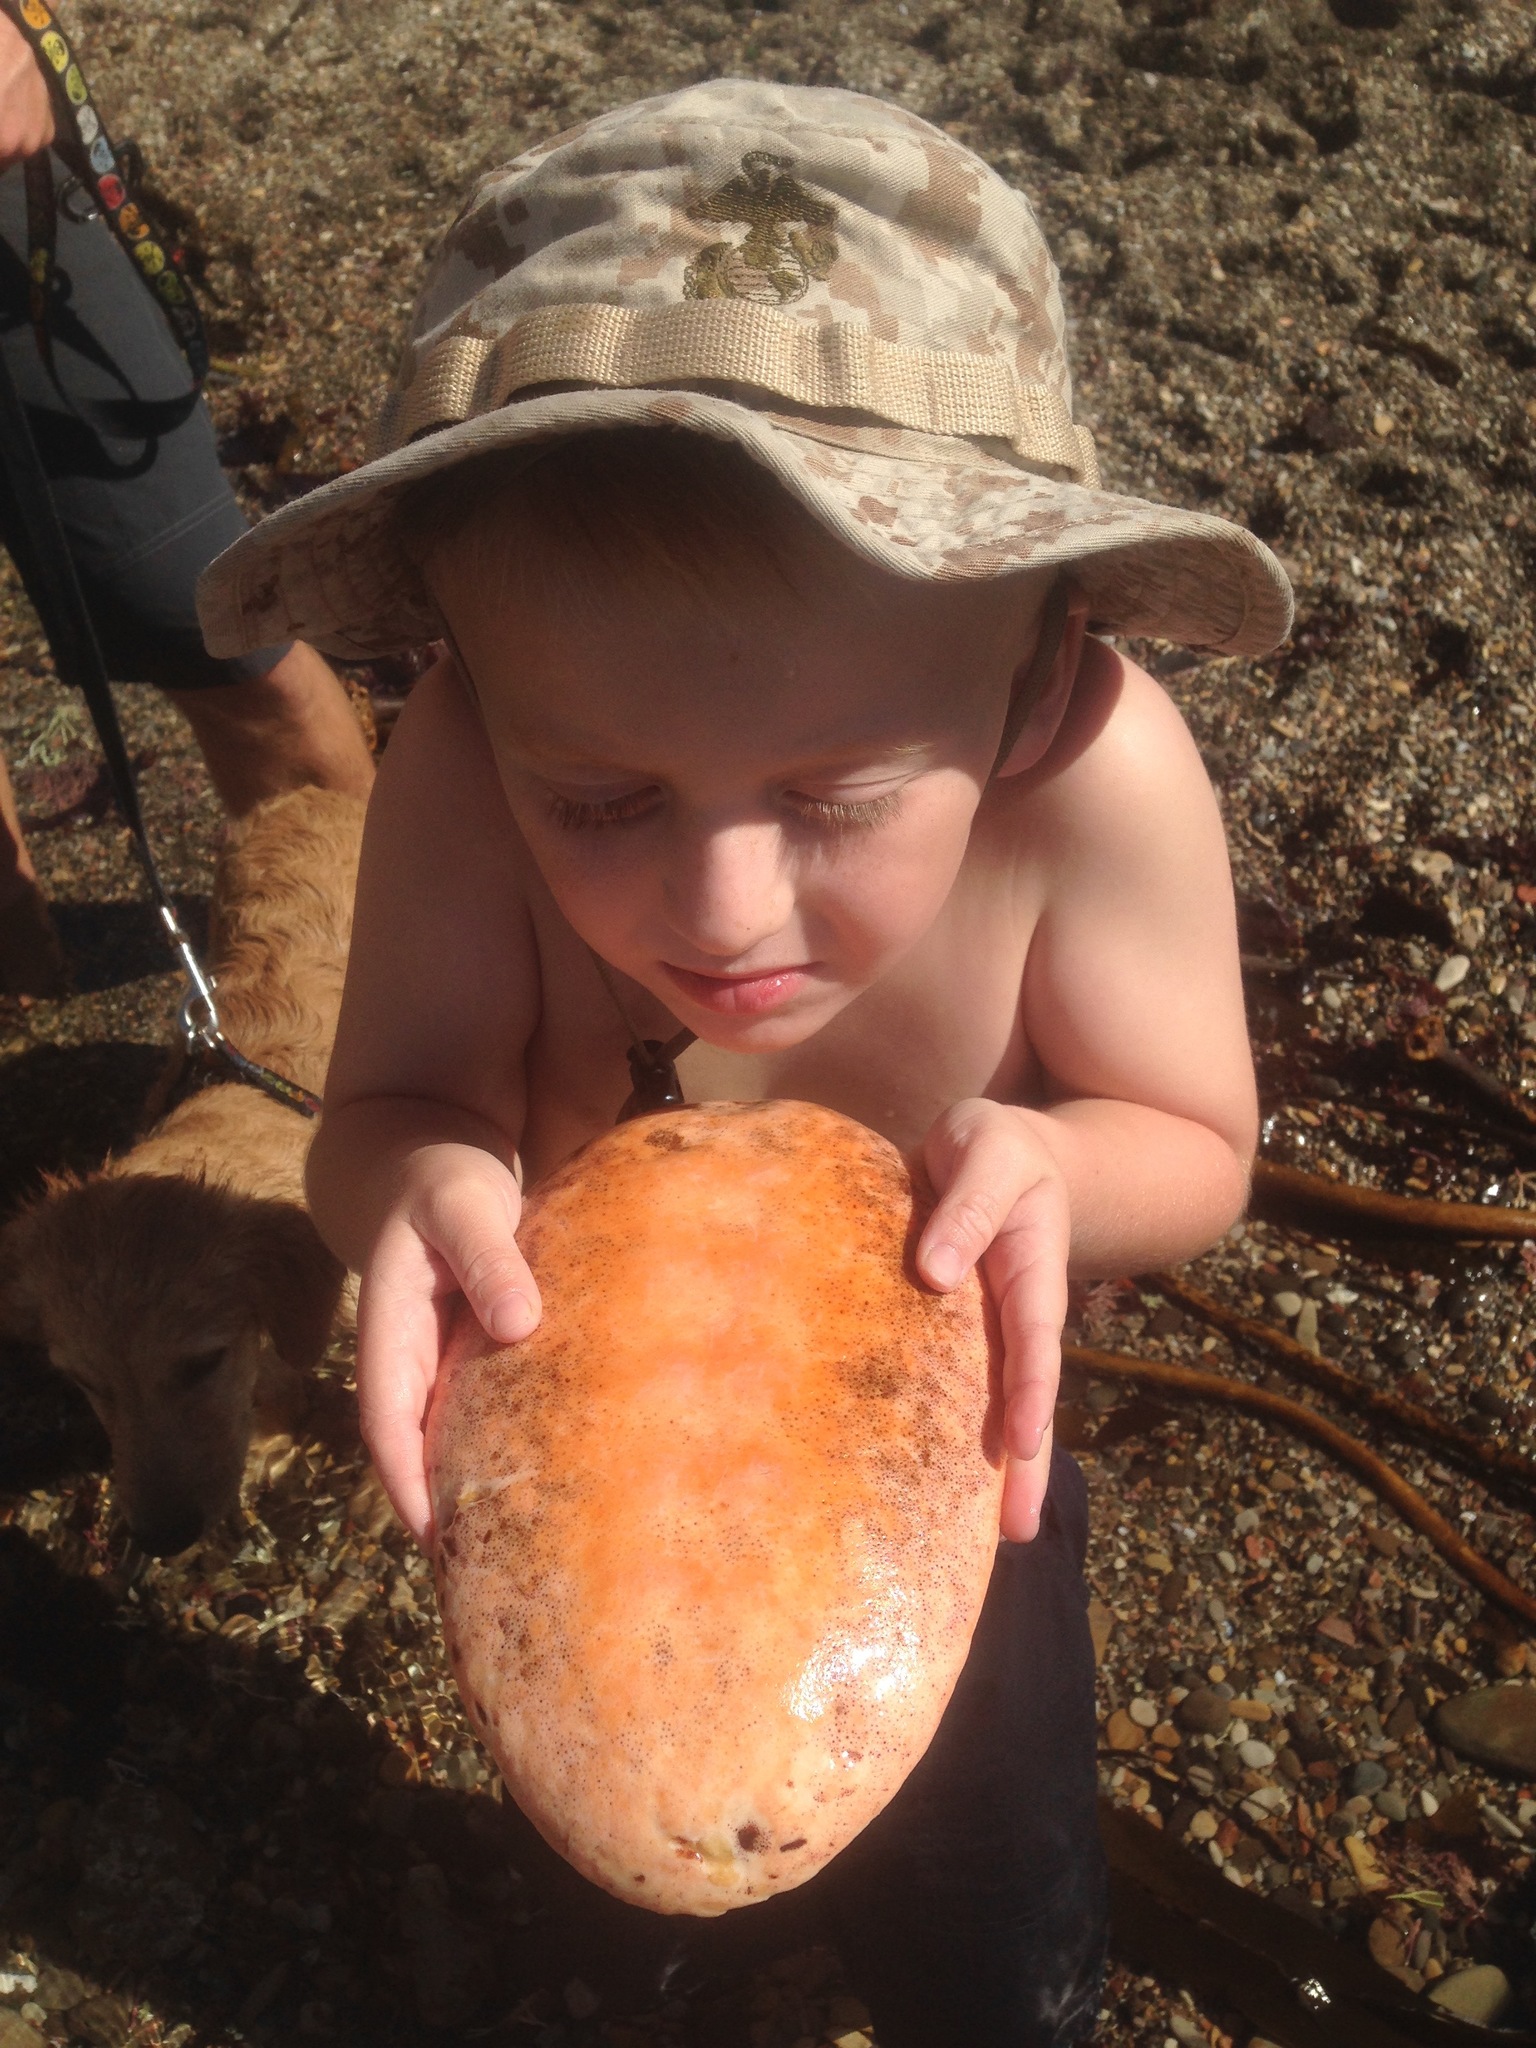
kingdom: Animalia
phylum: Mollusca
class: Polyplacophora
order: Chitonida
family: Acanthochitonidae
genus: Cryptochiton
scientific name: Cryptochiton stelleri
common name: Giant pacific chiton
